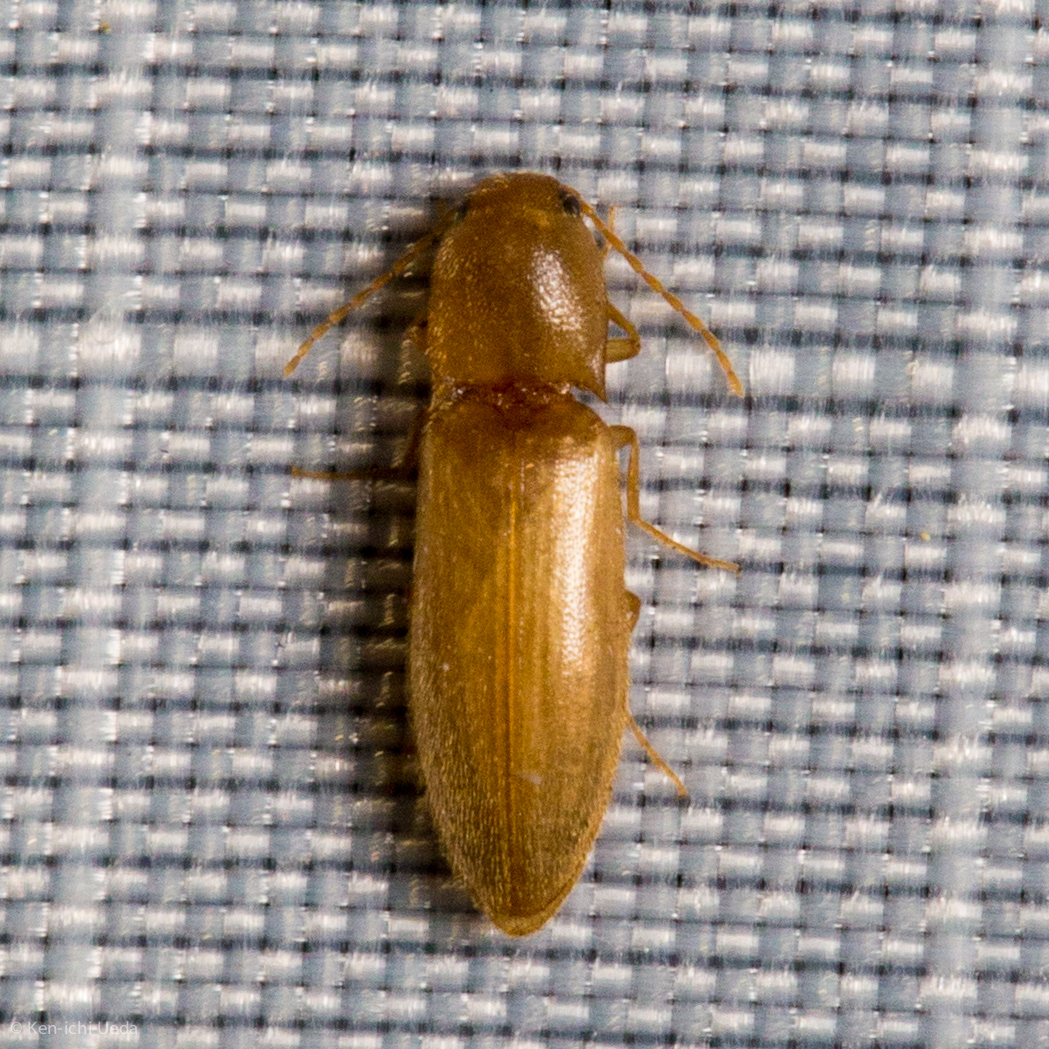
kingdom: Animalia
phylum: Arthropoda
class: Insecta
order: Coleoptera
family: Elateridae
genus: Dolerosomus
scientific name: Dolerosomus blaisdelli
